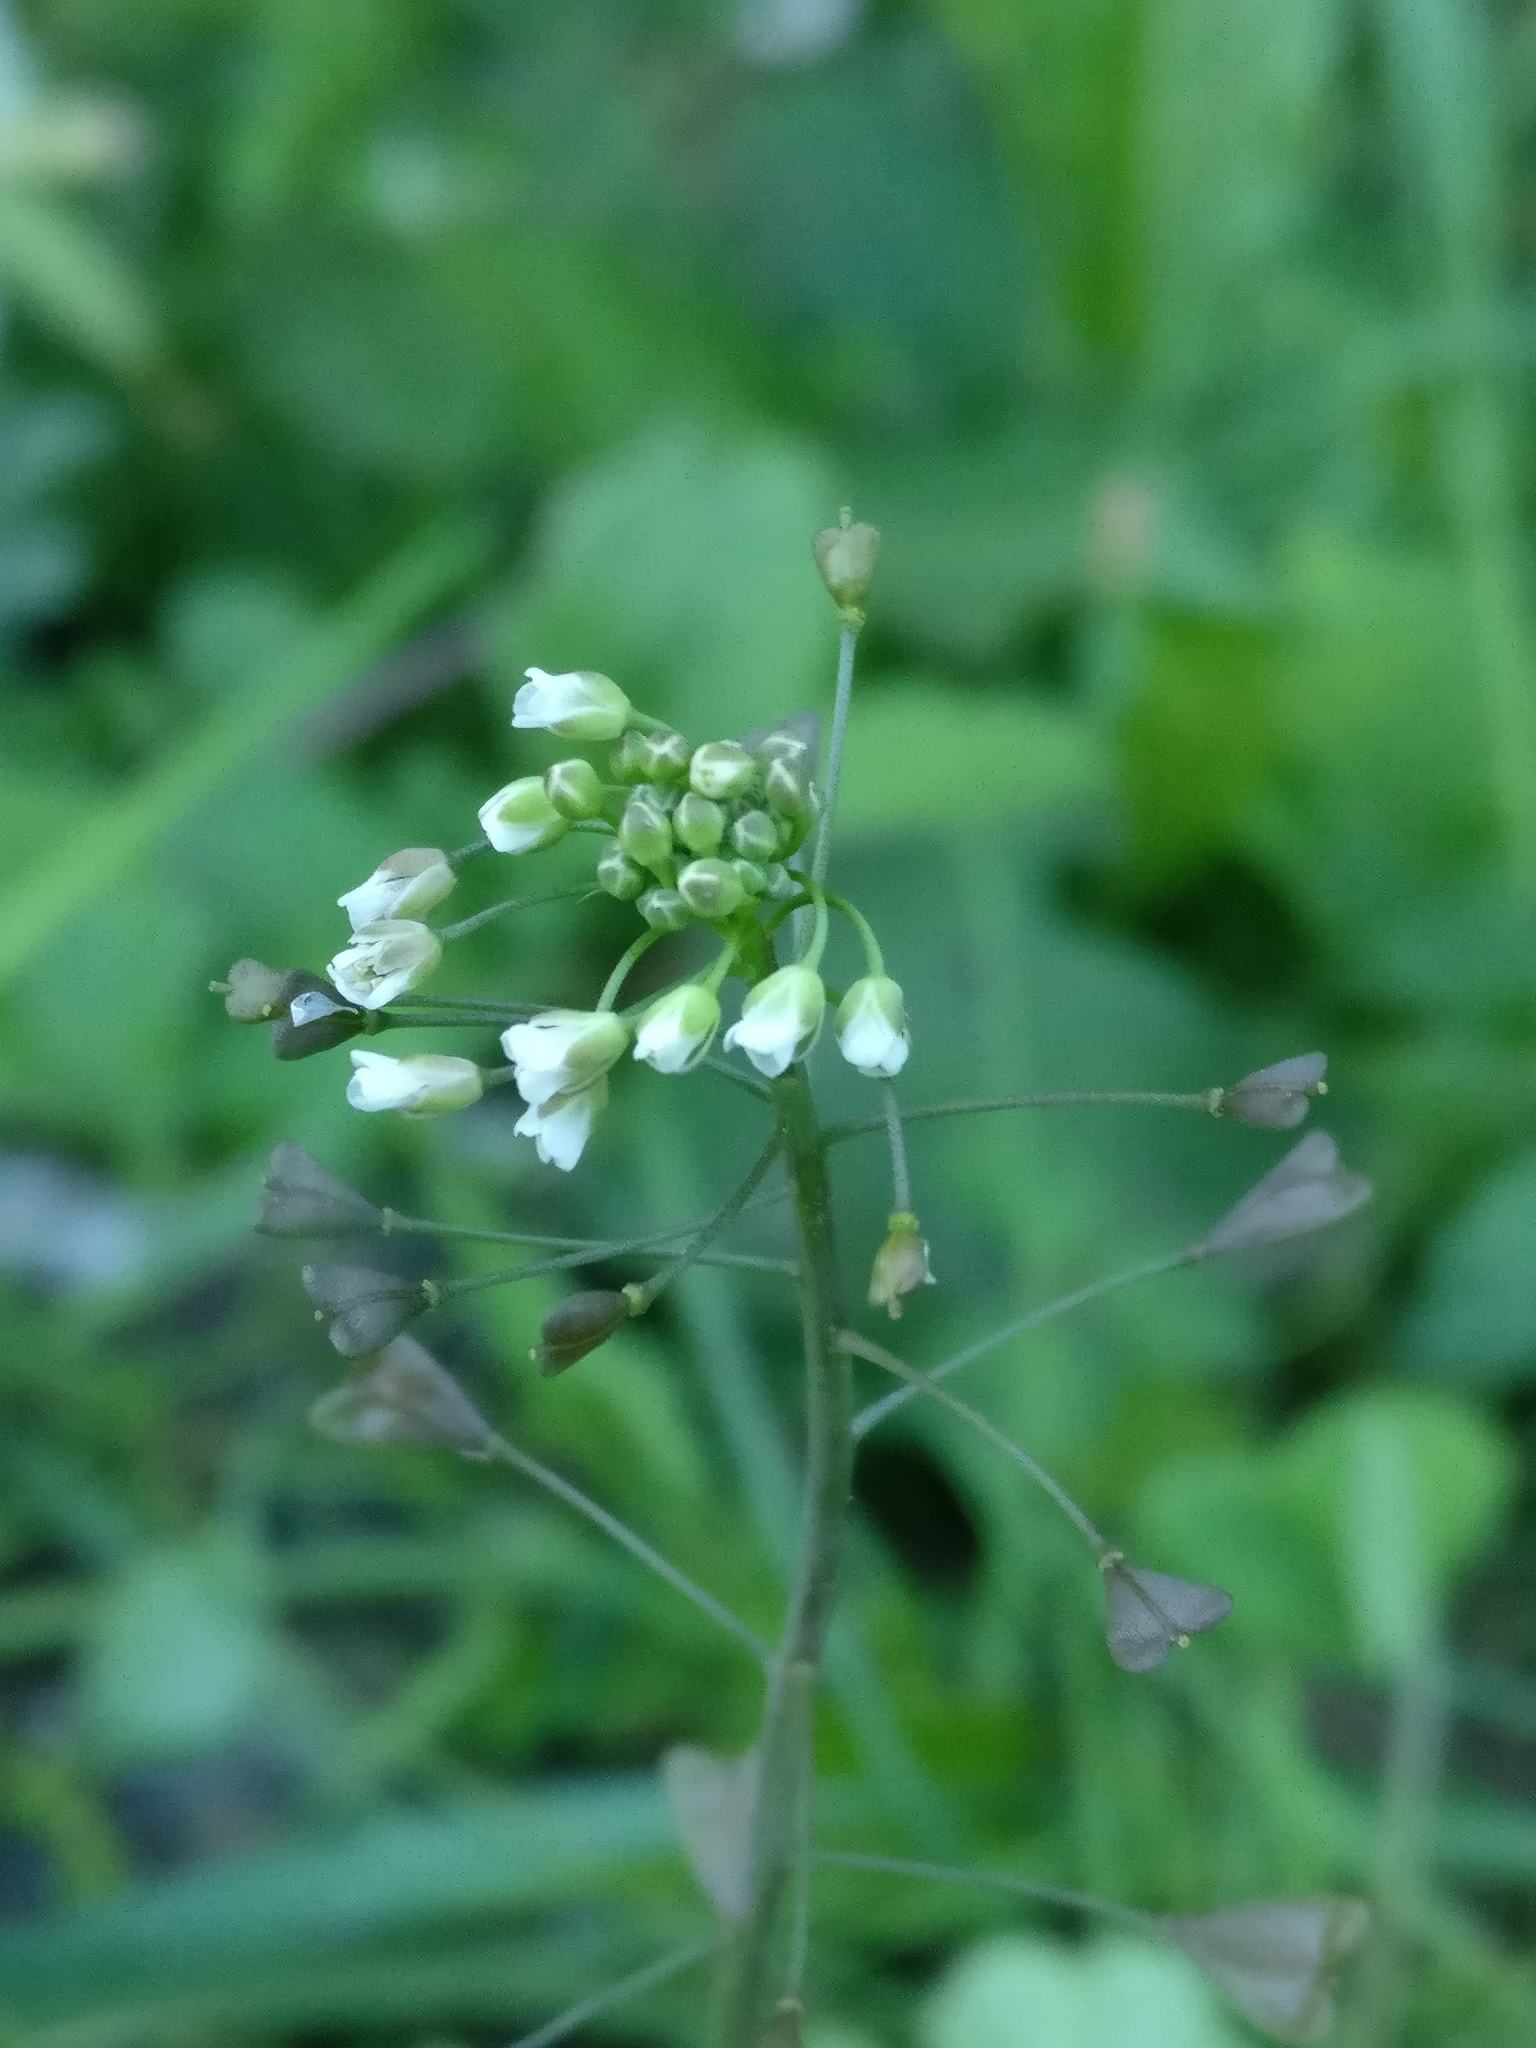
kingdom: Plantae
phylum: Tracheophyta
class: Magnoliopsida
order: Brassicales
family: Brassicaceae
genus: Capsella
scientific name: Capsella bursa-pastoris
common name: Shepherd's purse
